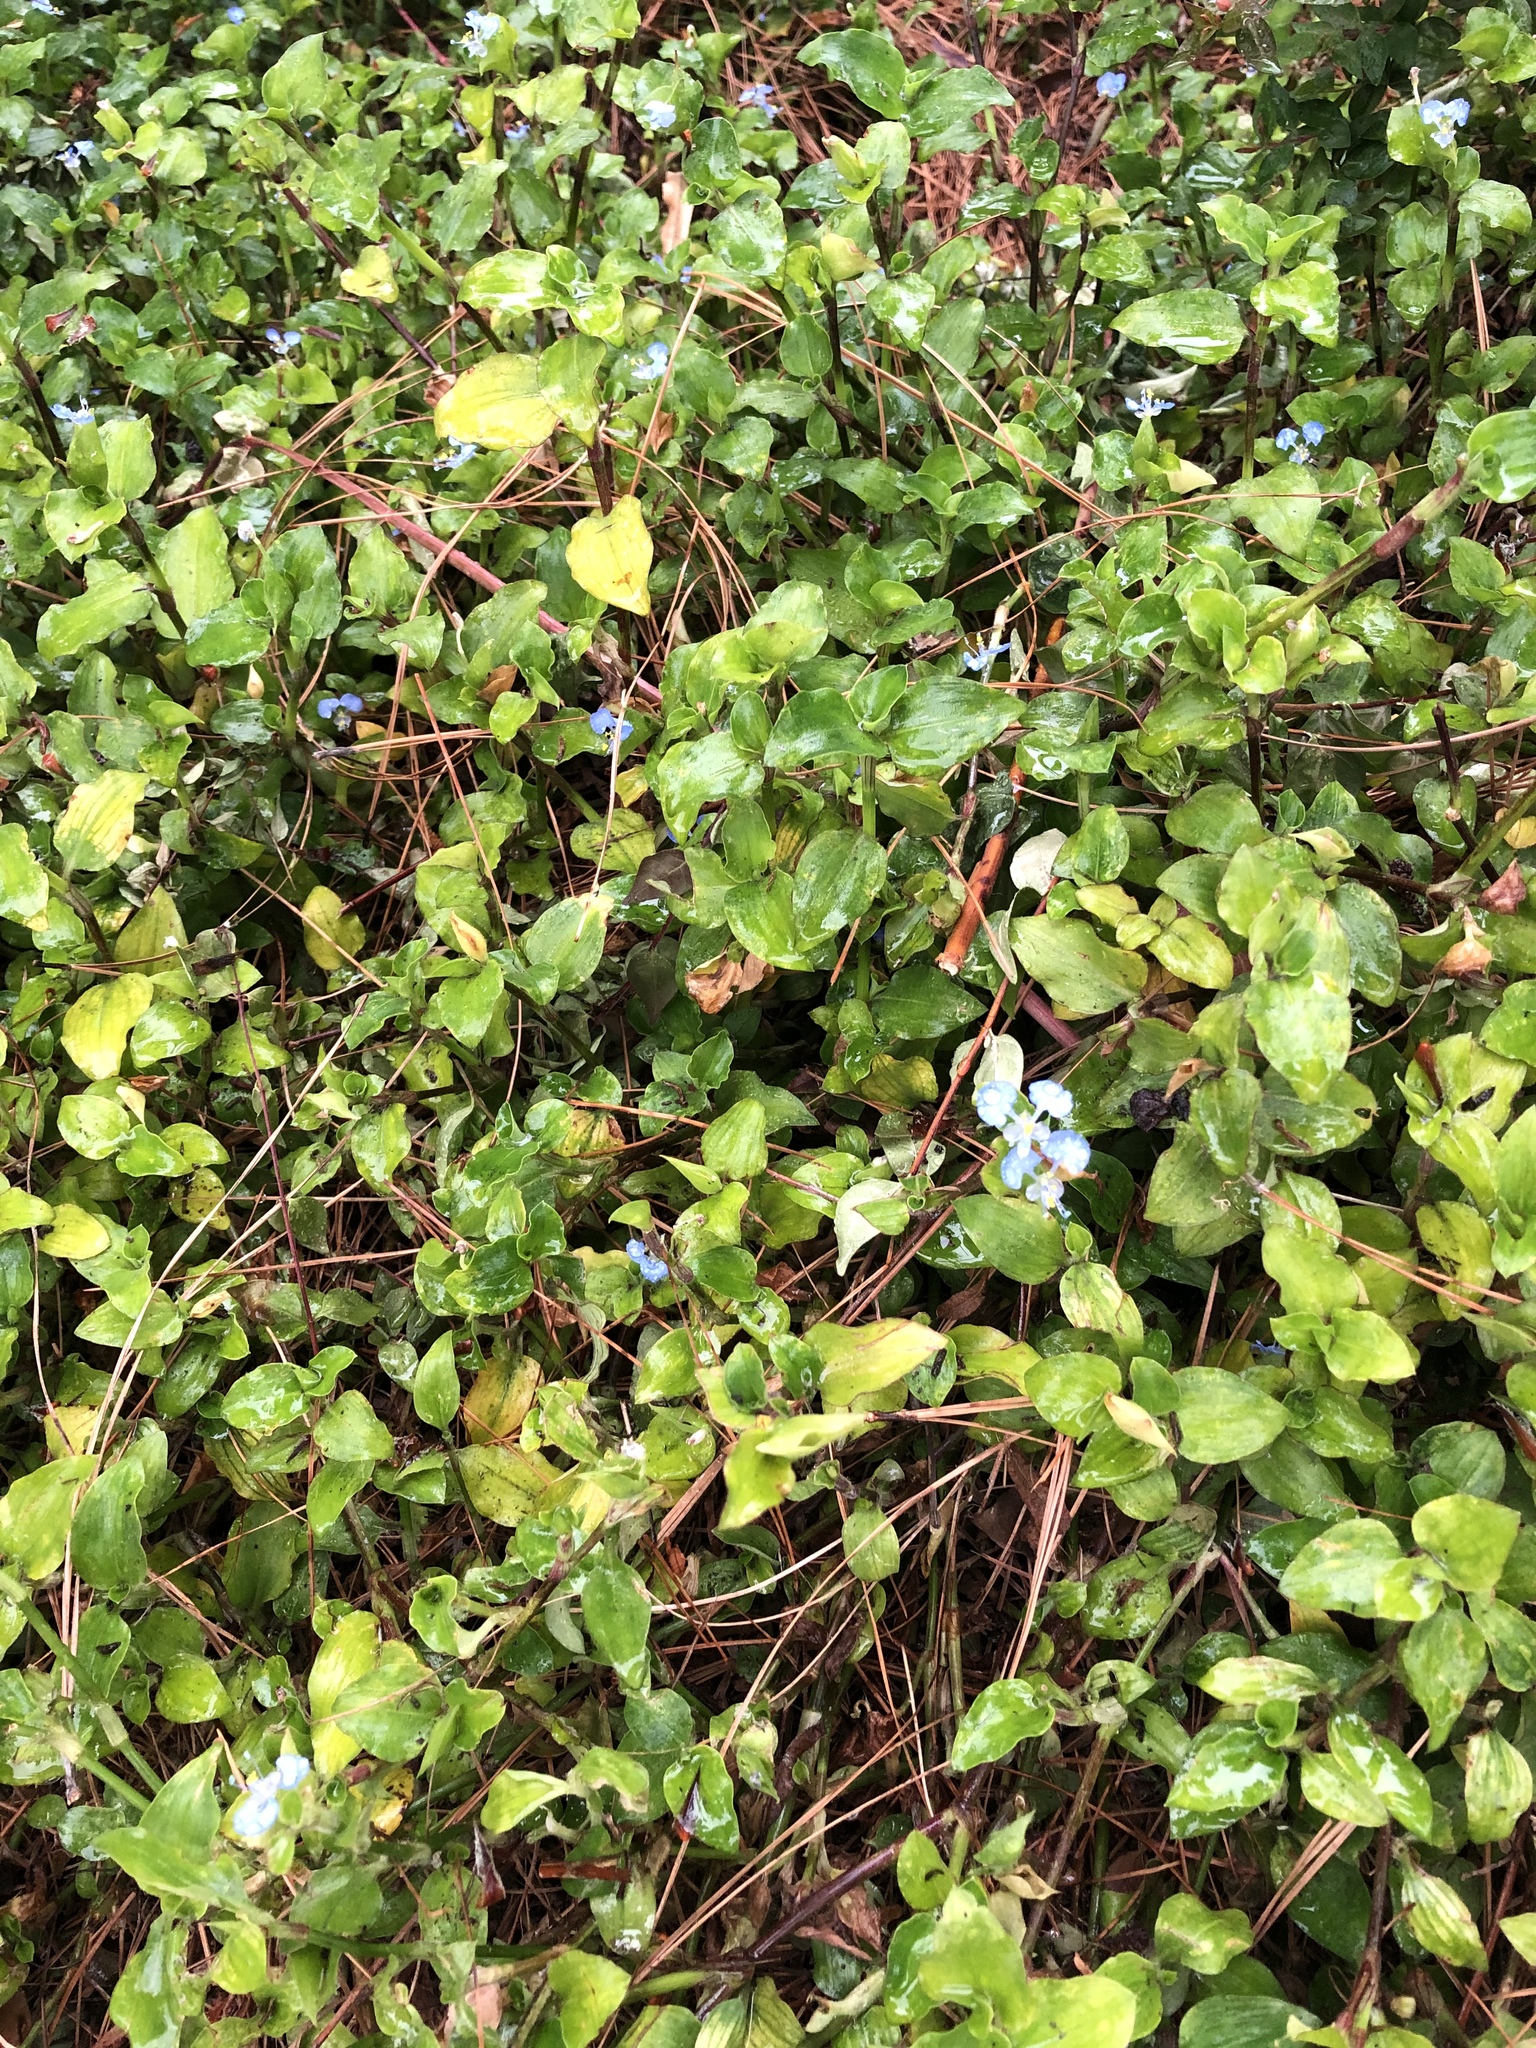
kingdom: Plantae
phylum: Tracheophyta
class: Liliopsida
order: Commelinales
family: Commelinaceae
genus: Commelina
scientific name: Commelina benghalensis
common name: Jio
